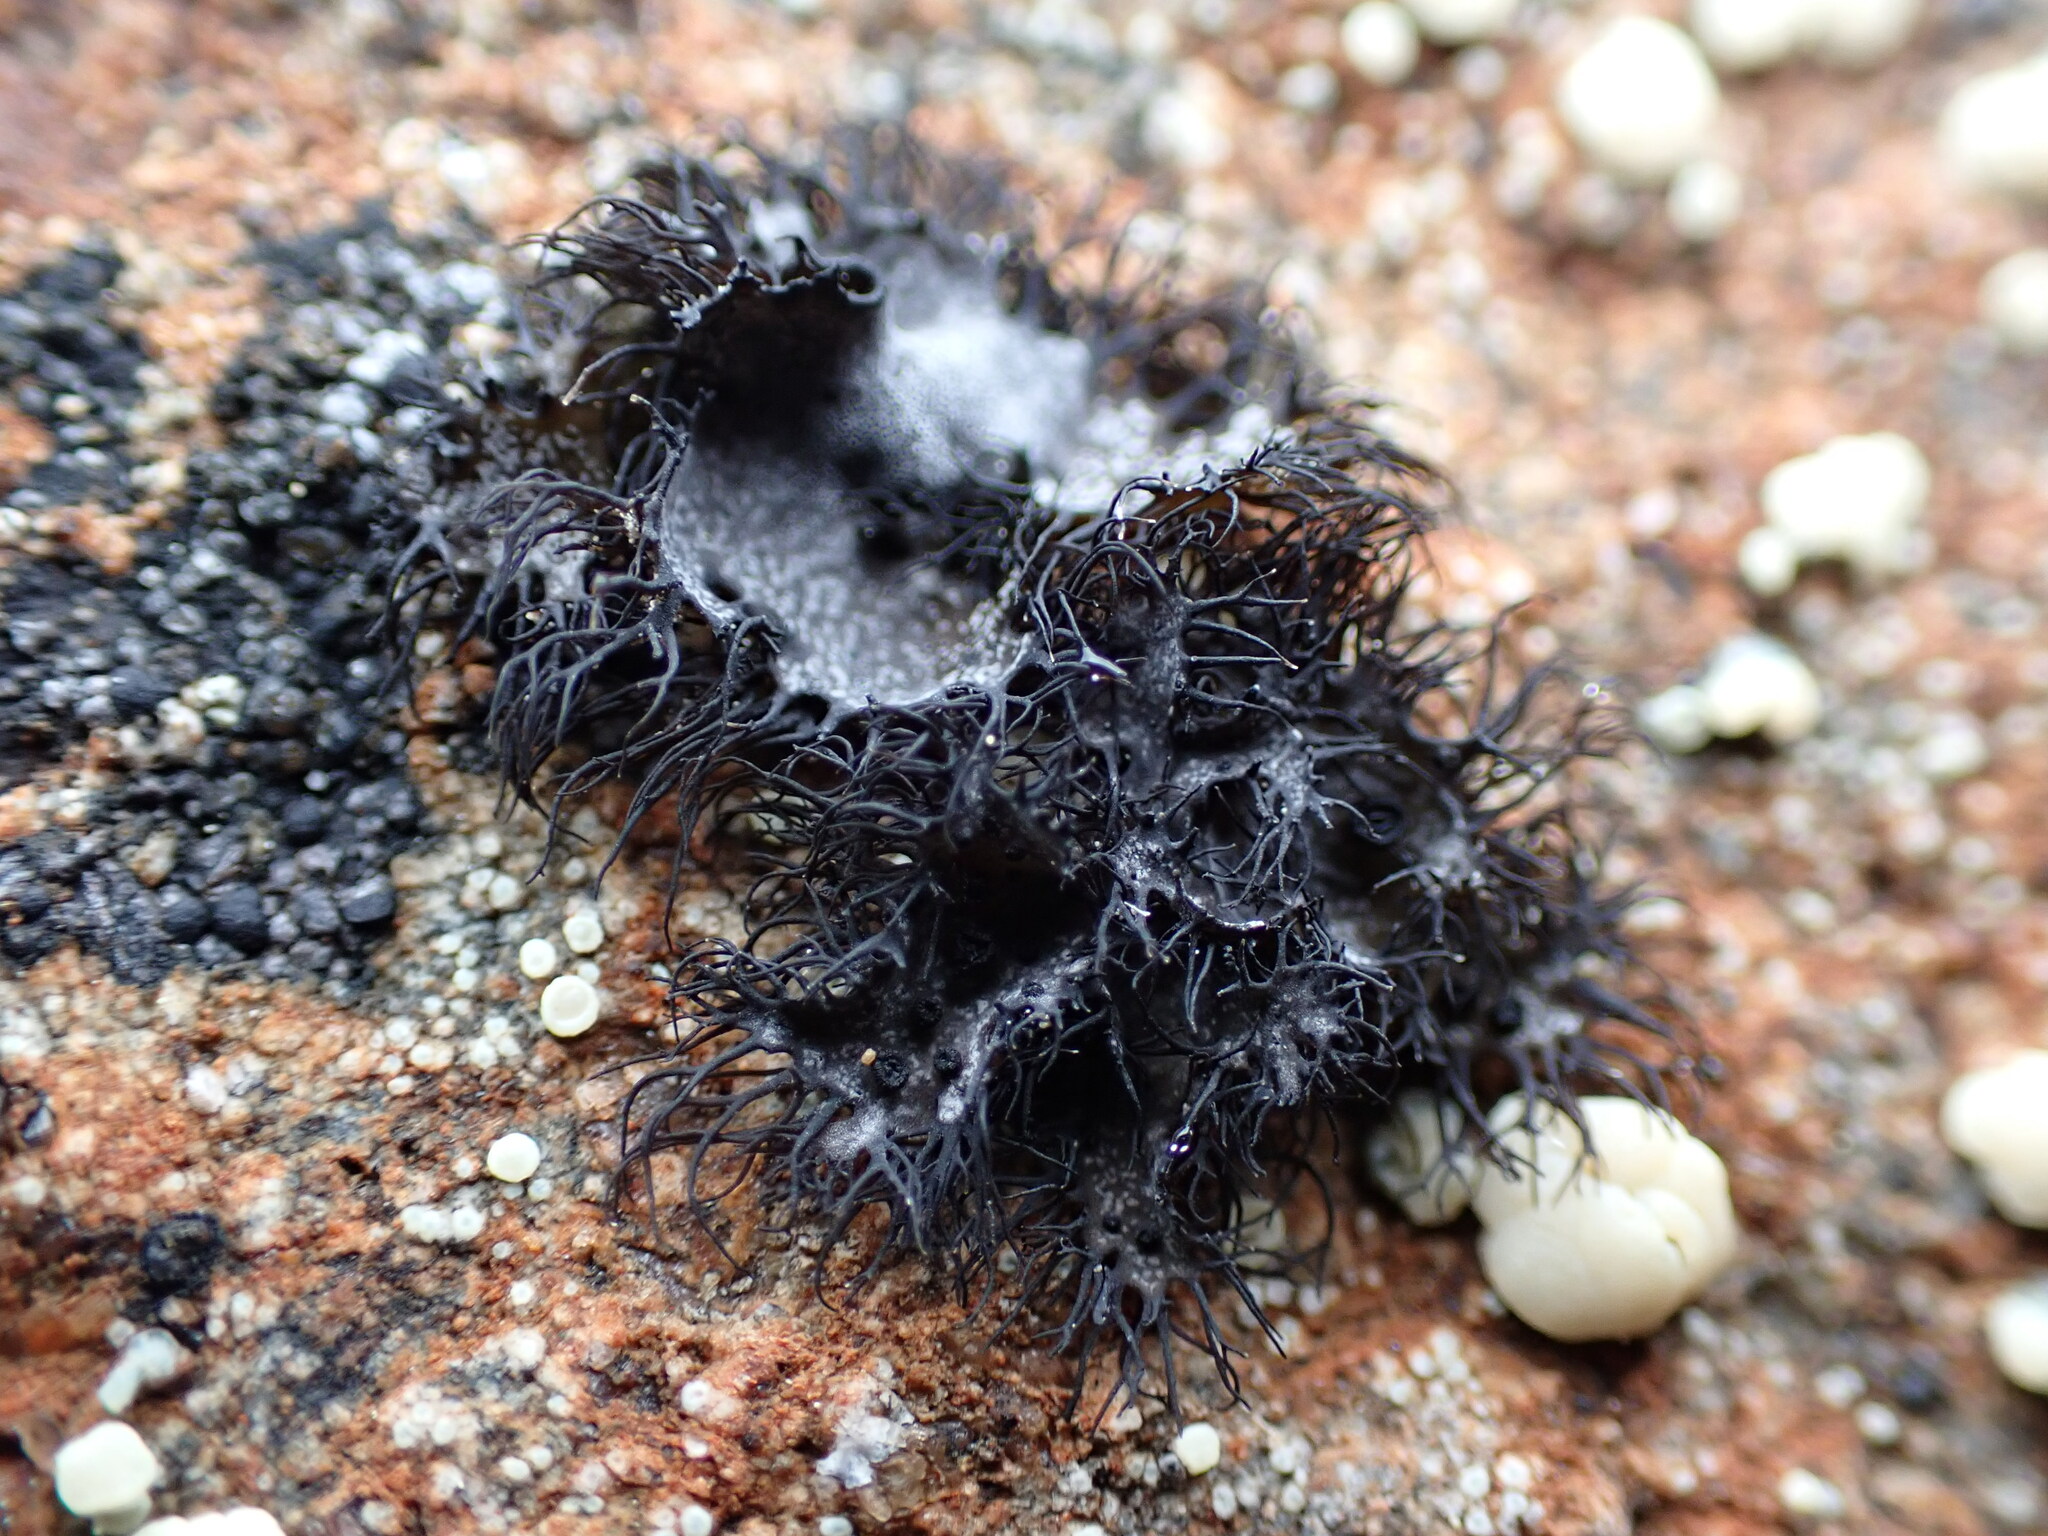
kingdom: Fungi
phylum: Ascomycota
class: Lecanoromycetes
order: Umbilicariales
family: Umbilicariaceae
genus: Umbilicaria
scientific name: Umbilicaria cylindrica
